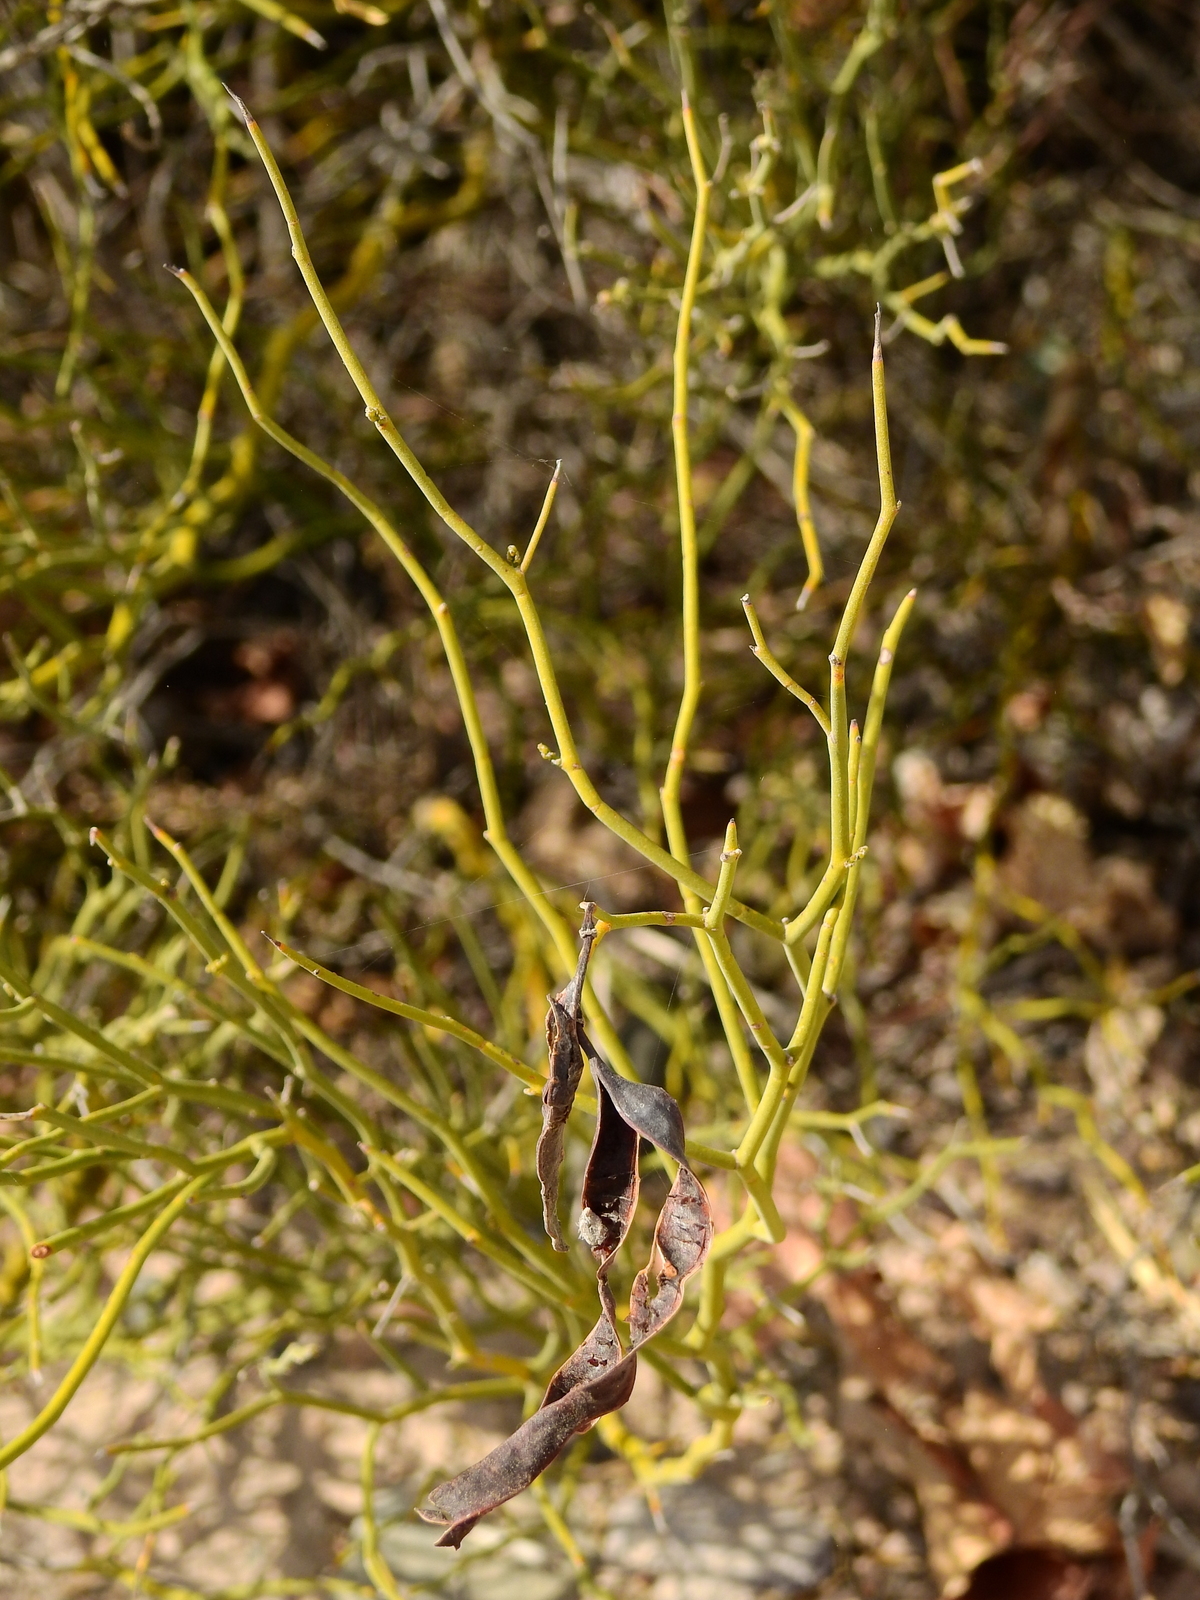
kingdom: Plantae
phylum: Tracheophyta
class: Magnoliopsida
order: Fabales
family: Fabaceae
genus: Senna
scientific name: Senna aphylla
